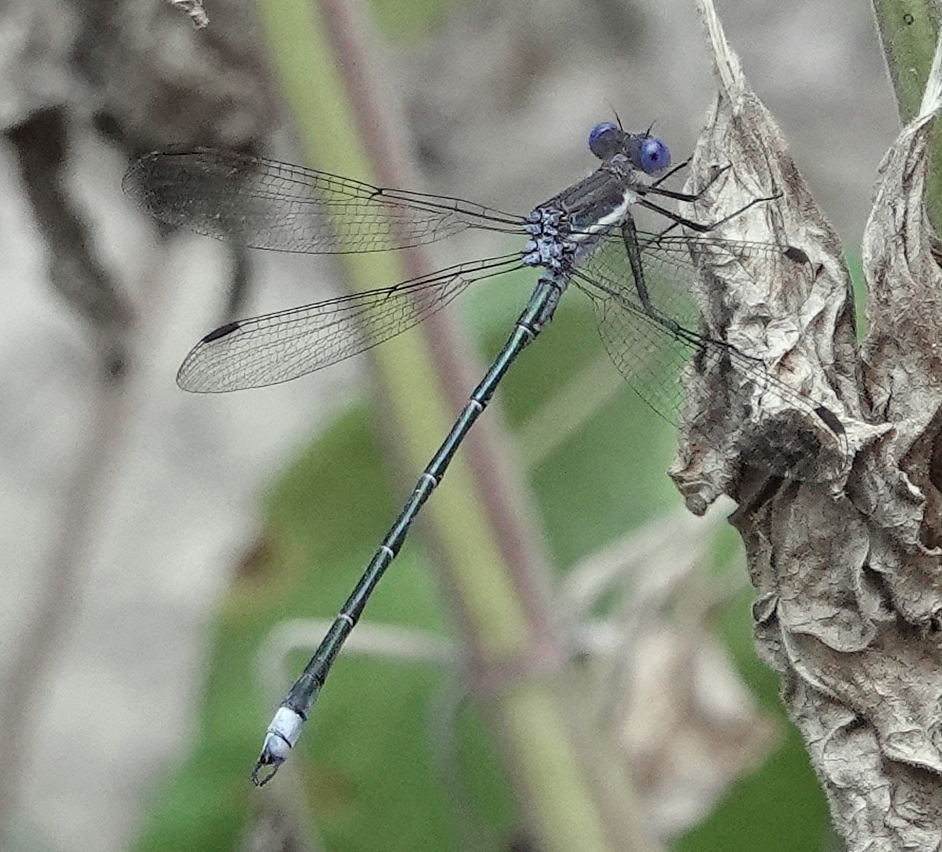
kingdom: Animalia
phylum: Arthropoda
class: Insecta
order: Odonata
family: Lestidae
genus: Archilestes
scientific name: Archilestes grandis
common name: Great spreadwing
